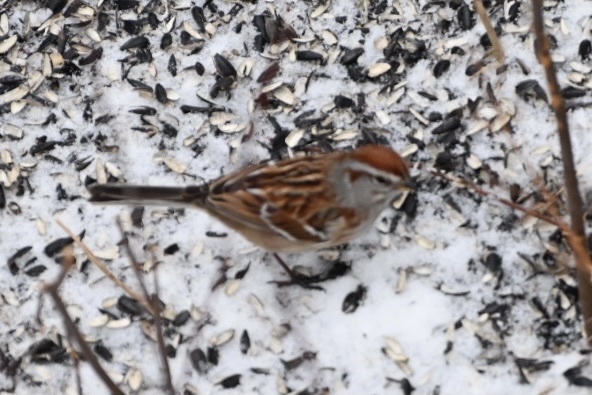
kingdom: Animalia
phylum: Chordata
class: Aves
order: Passeriformes
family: Passerellidae
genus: Spizelloides
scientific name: Spizelloides arborea
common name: American tree sparrow
